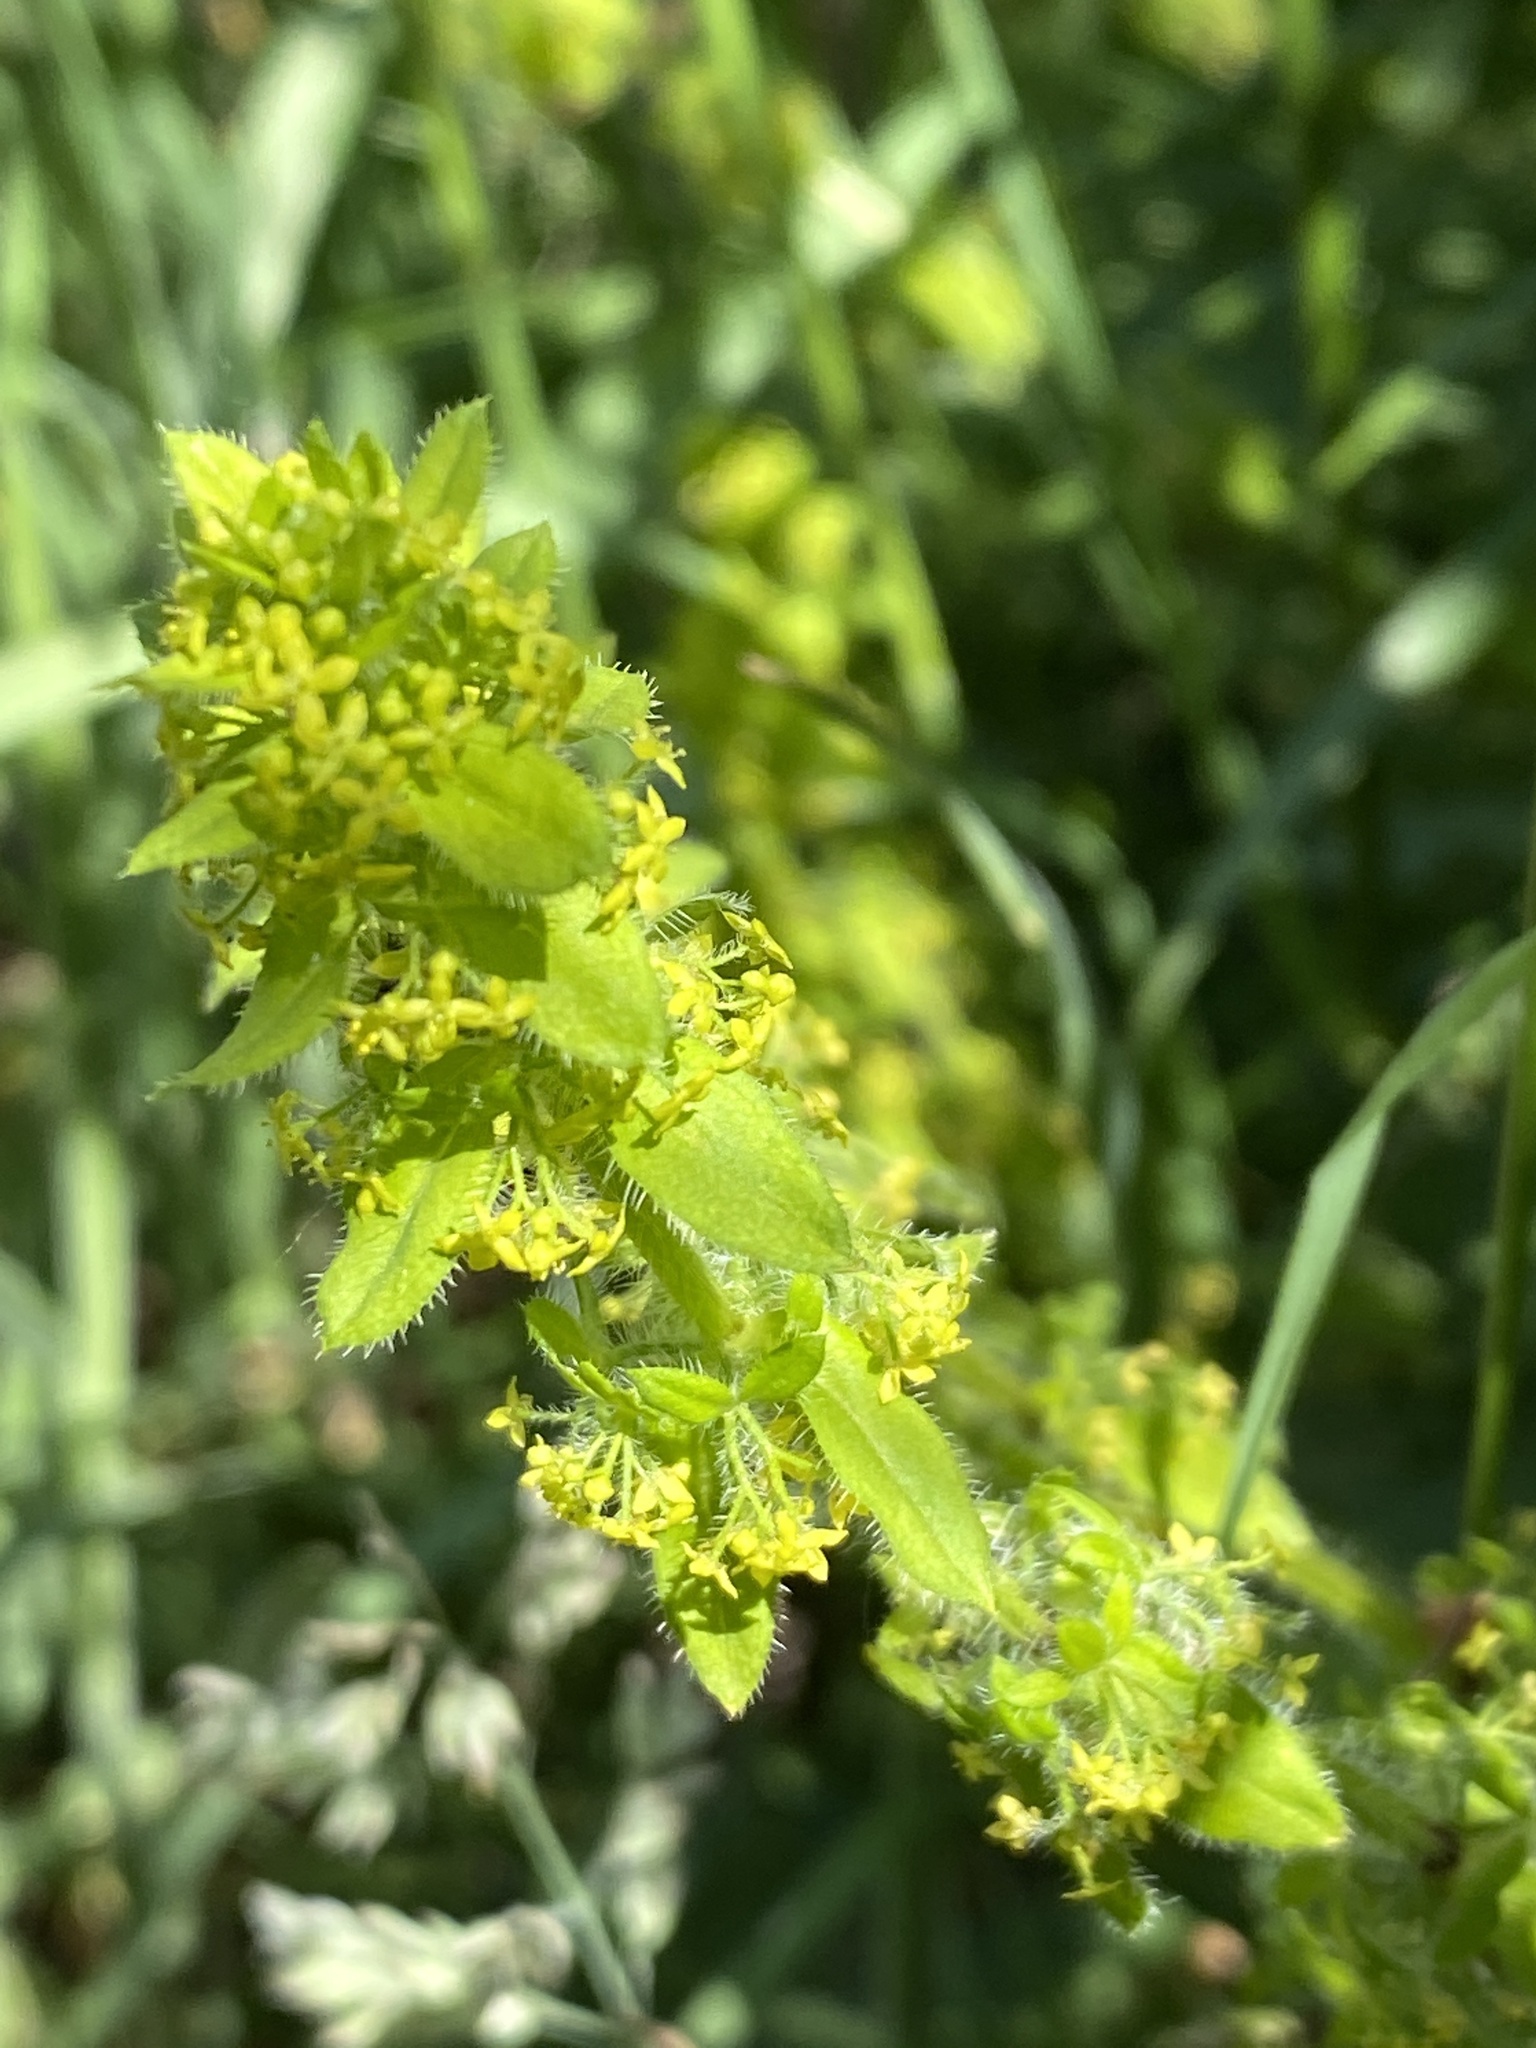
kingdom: Plantae
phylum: Tracheophyta
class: Magnoliopsida
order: Gentianales
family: Rubiaceae
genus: Cruciata
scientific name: Cruciata laevipes
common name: Crosswort
